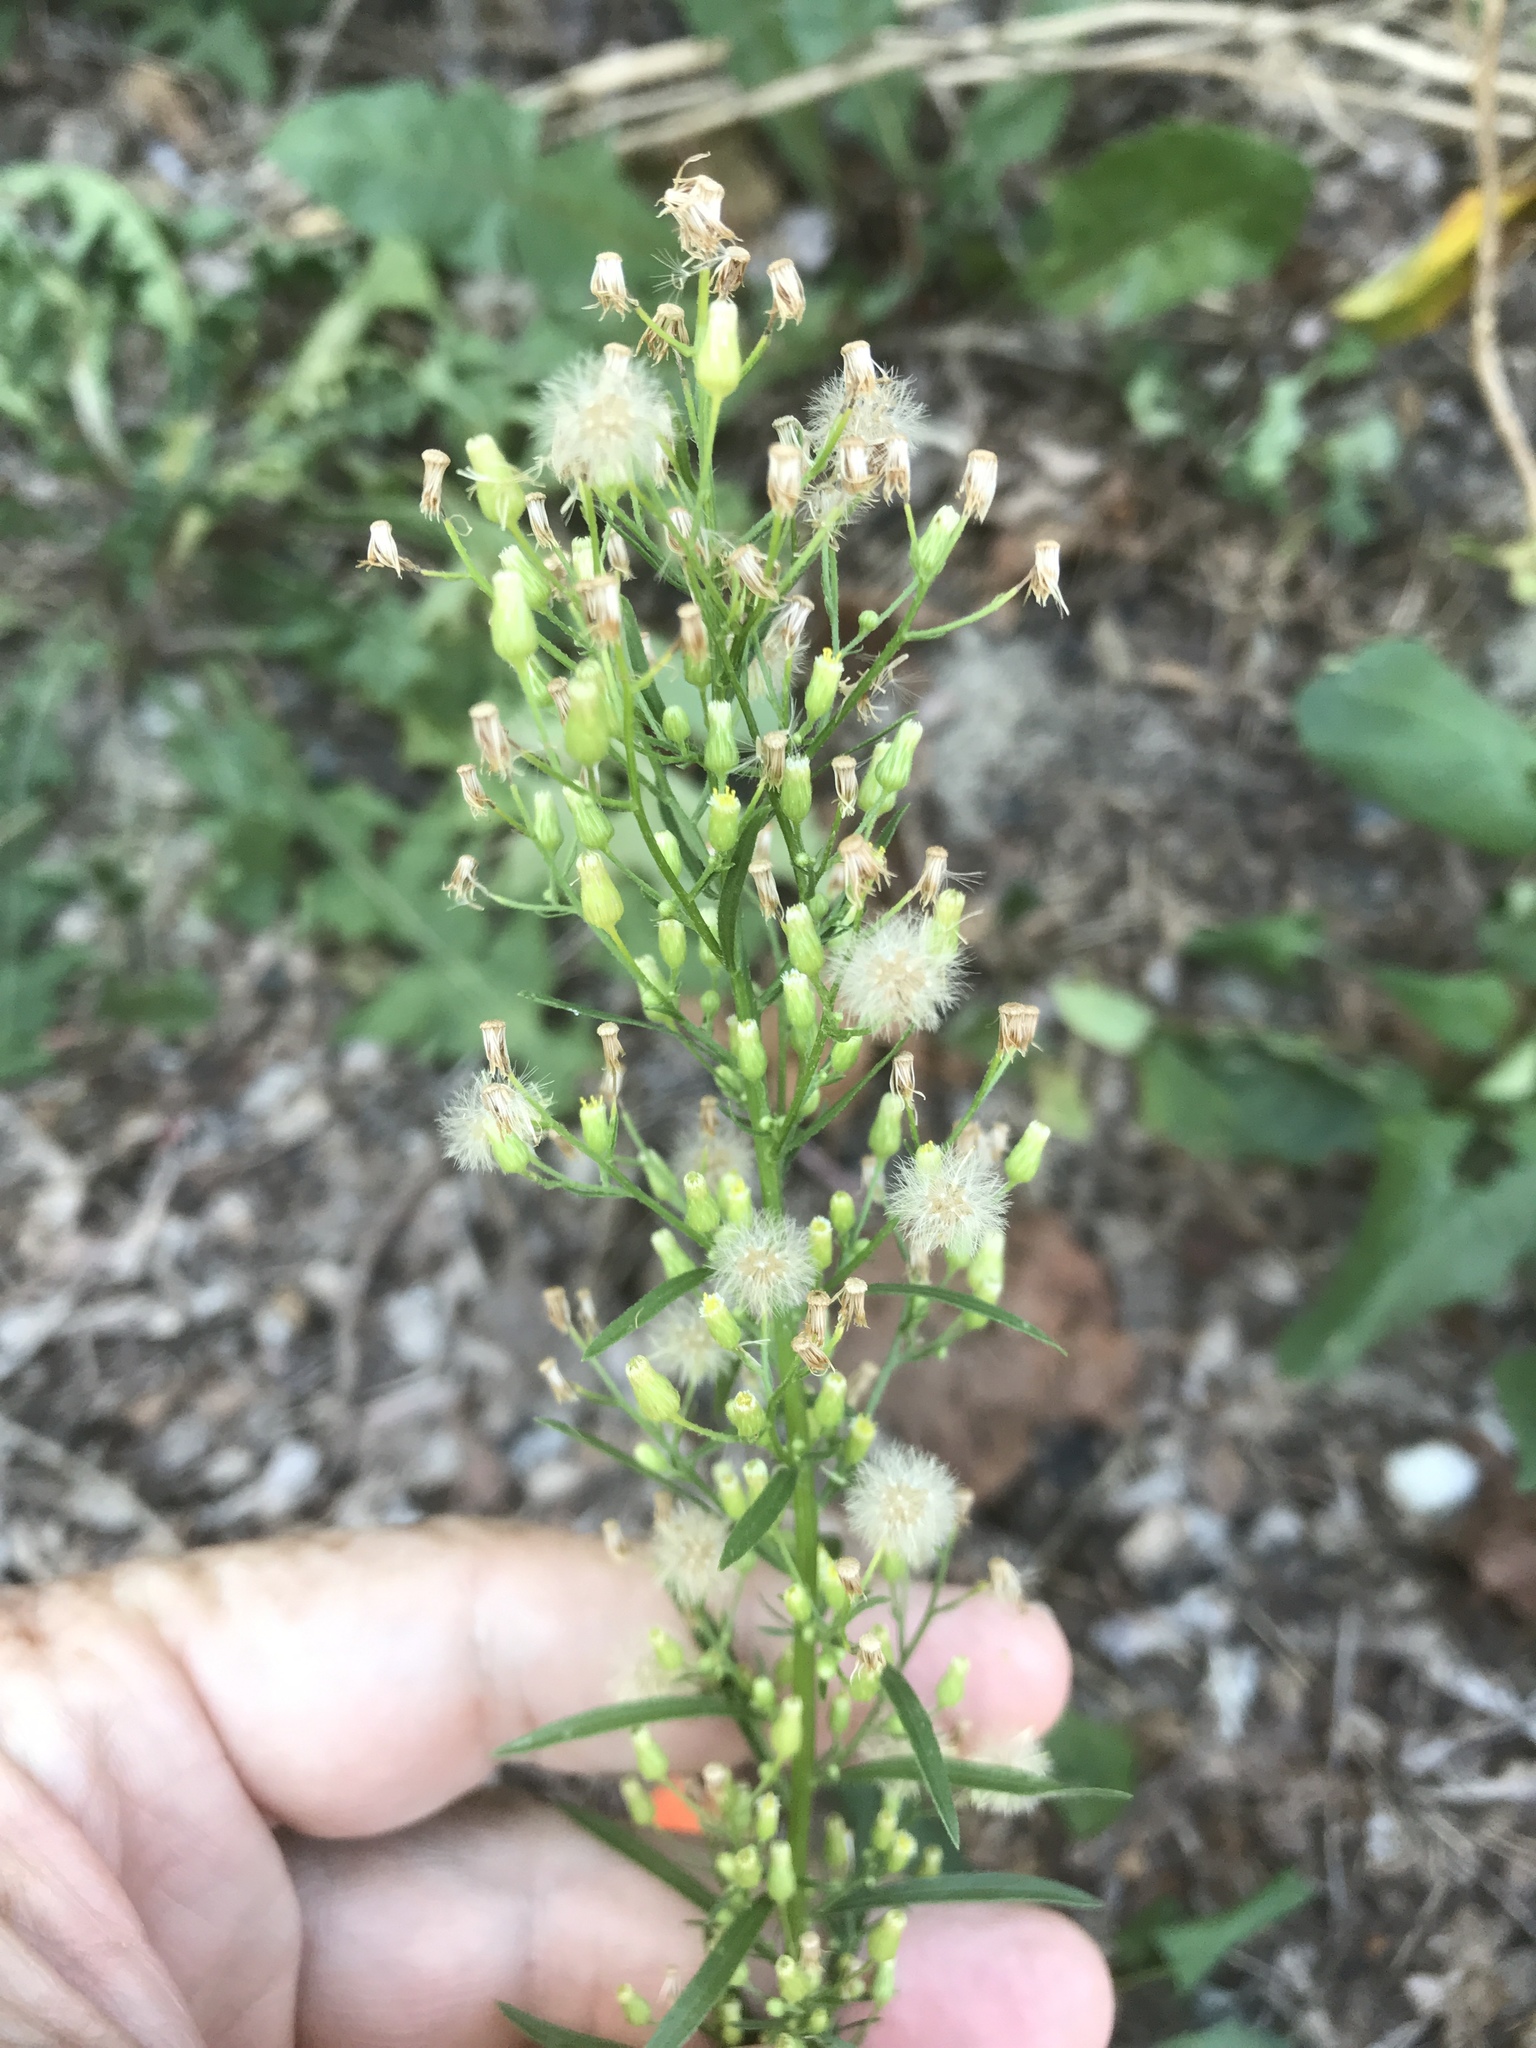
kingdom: Plantae
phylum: Tracheophyta
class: Magnoliopsida
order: Asterales
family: Asteraceae
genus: Erigeron
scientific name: Erigeron canadensis
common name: Canadian fleabane
